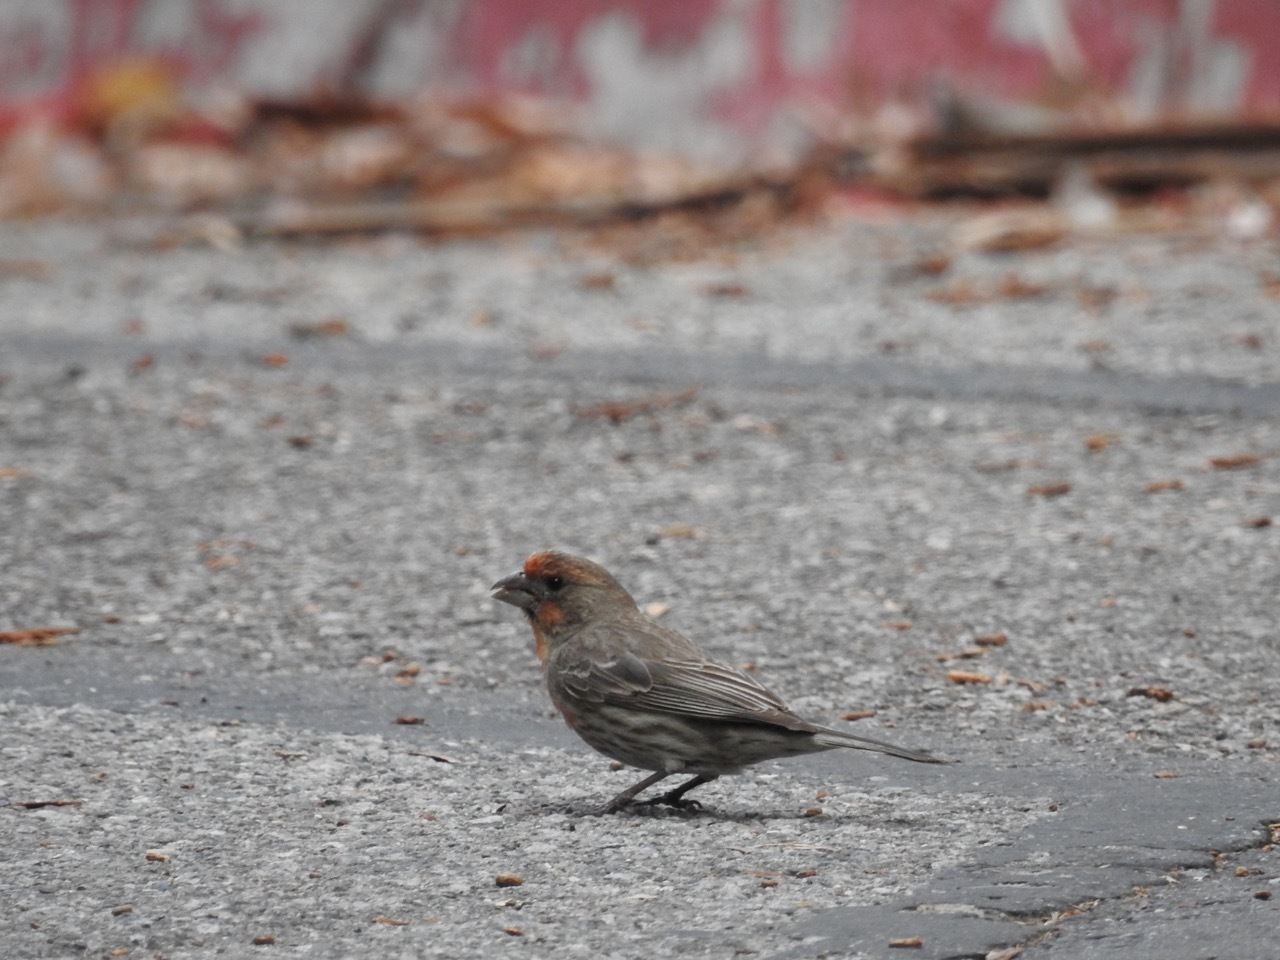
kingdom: Animalia
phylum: Chordata
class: Aves
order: Passeriformes
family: Fringillidae
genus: Haemorhous
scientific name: Haemorhous mexicanus
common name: House finch
